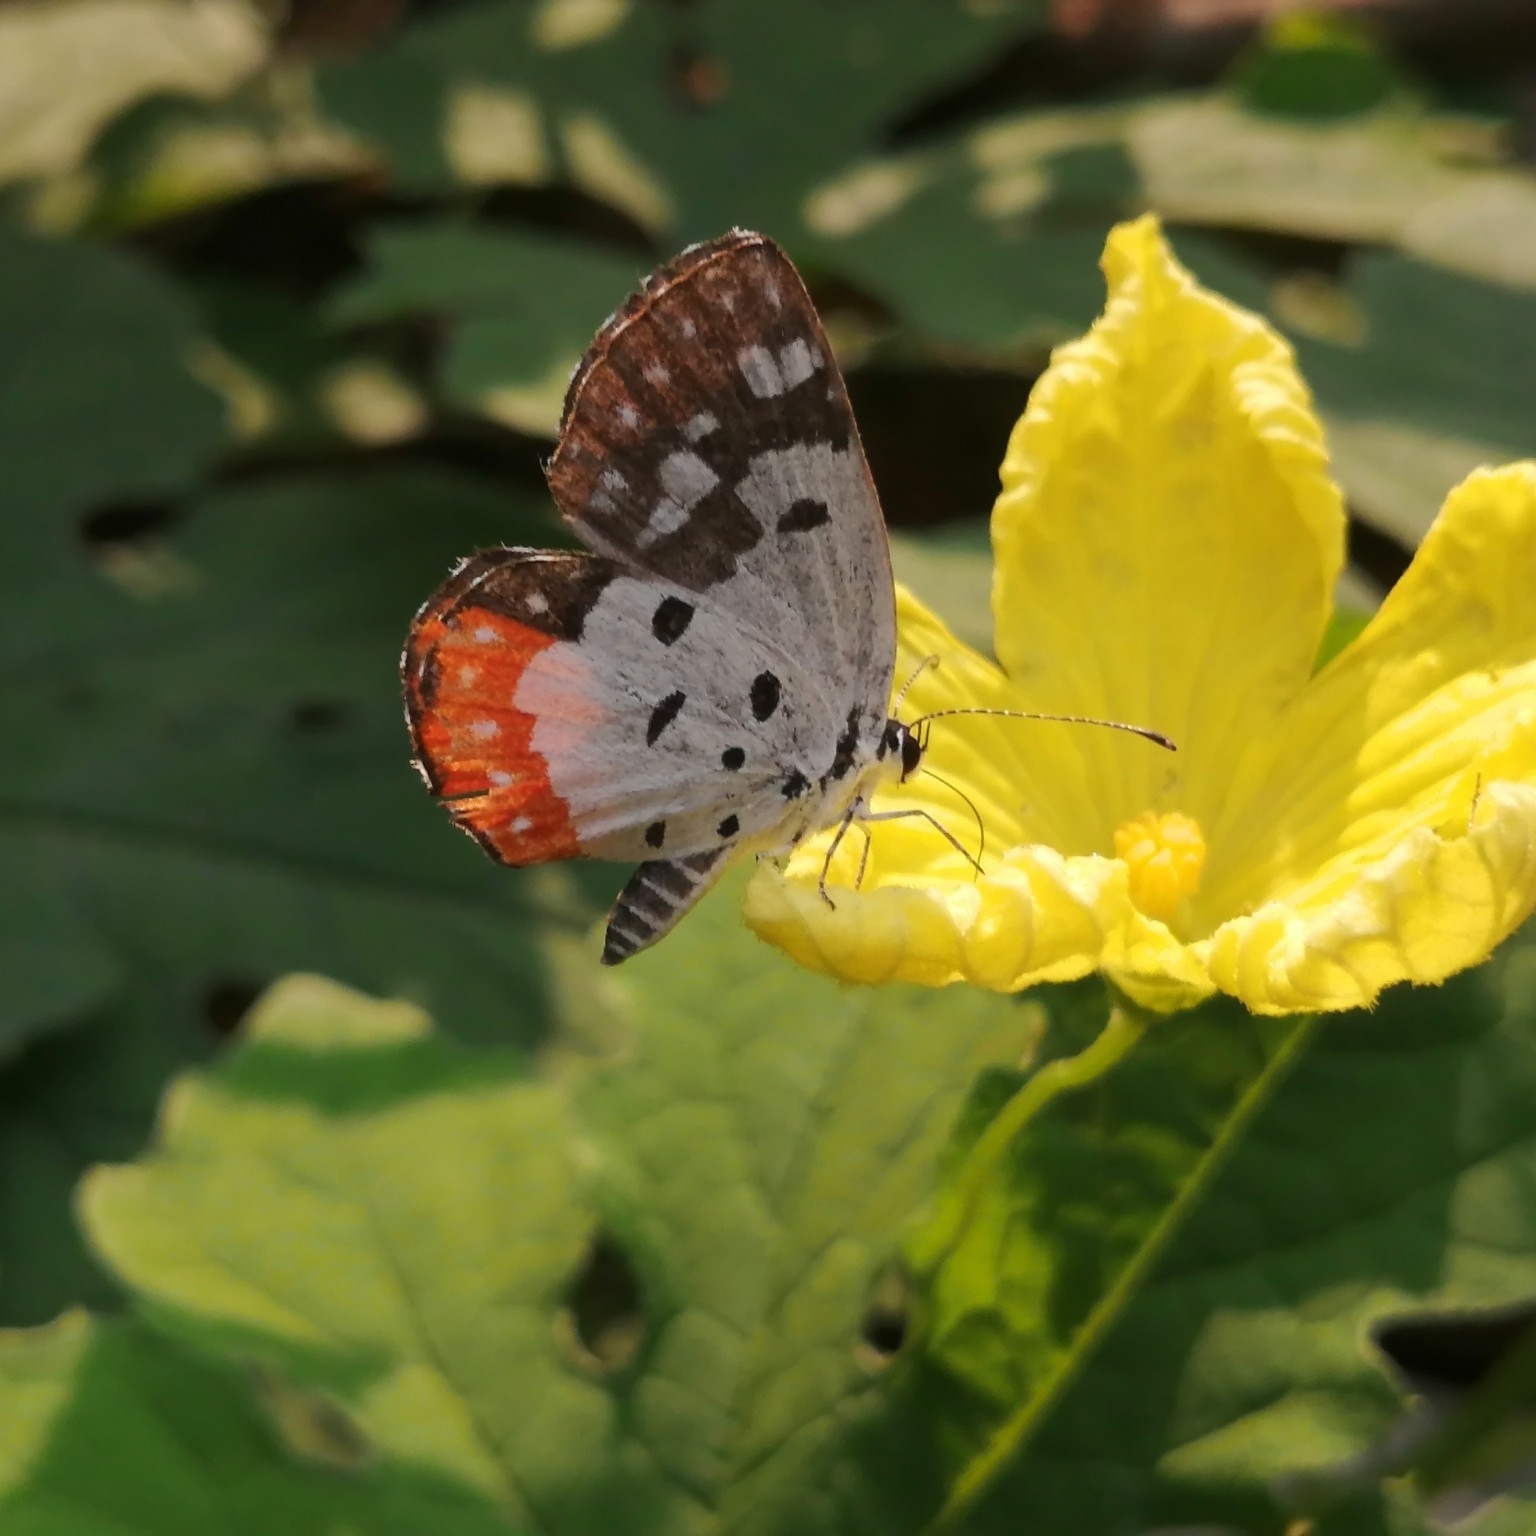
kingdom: Animalia
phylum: Arthropoda
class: Insecta
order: Lepidoptera
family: Lycaenidae
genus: Talicada
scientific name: Talicada nyseus
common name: Red pierrot
